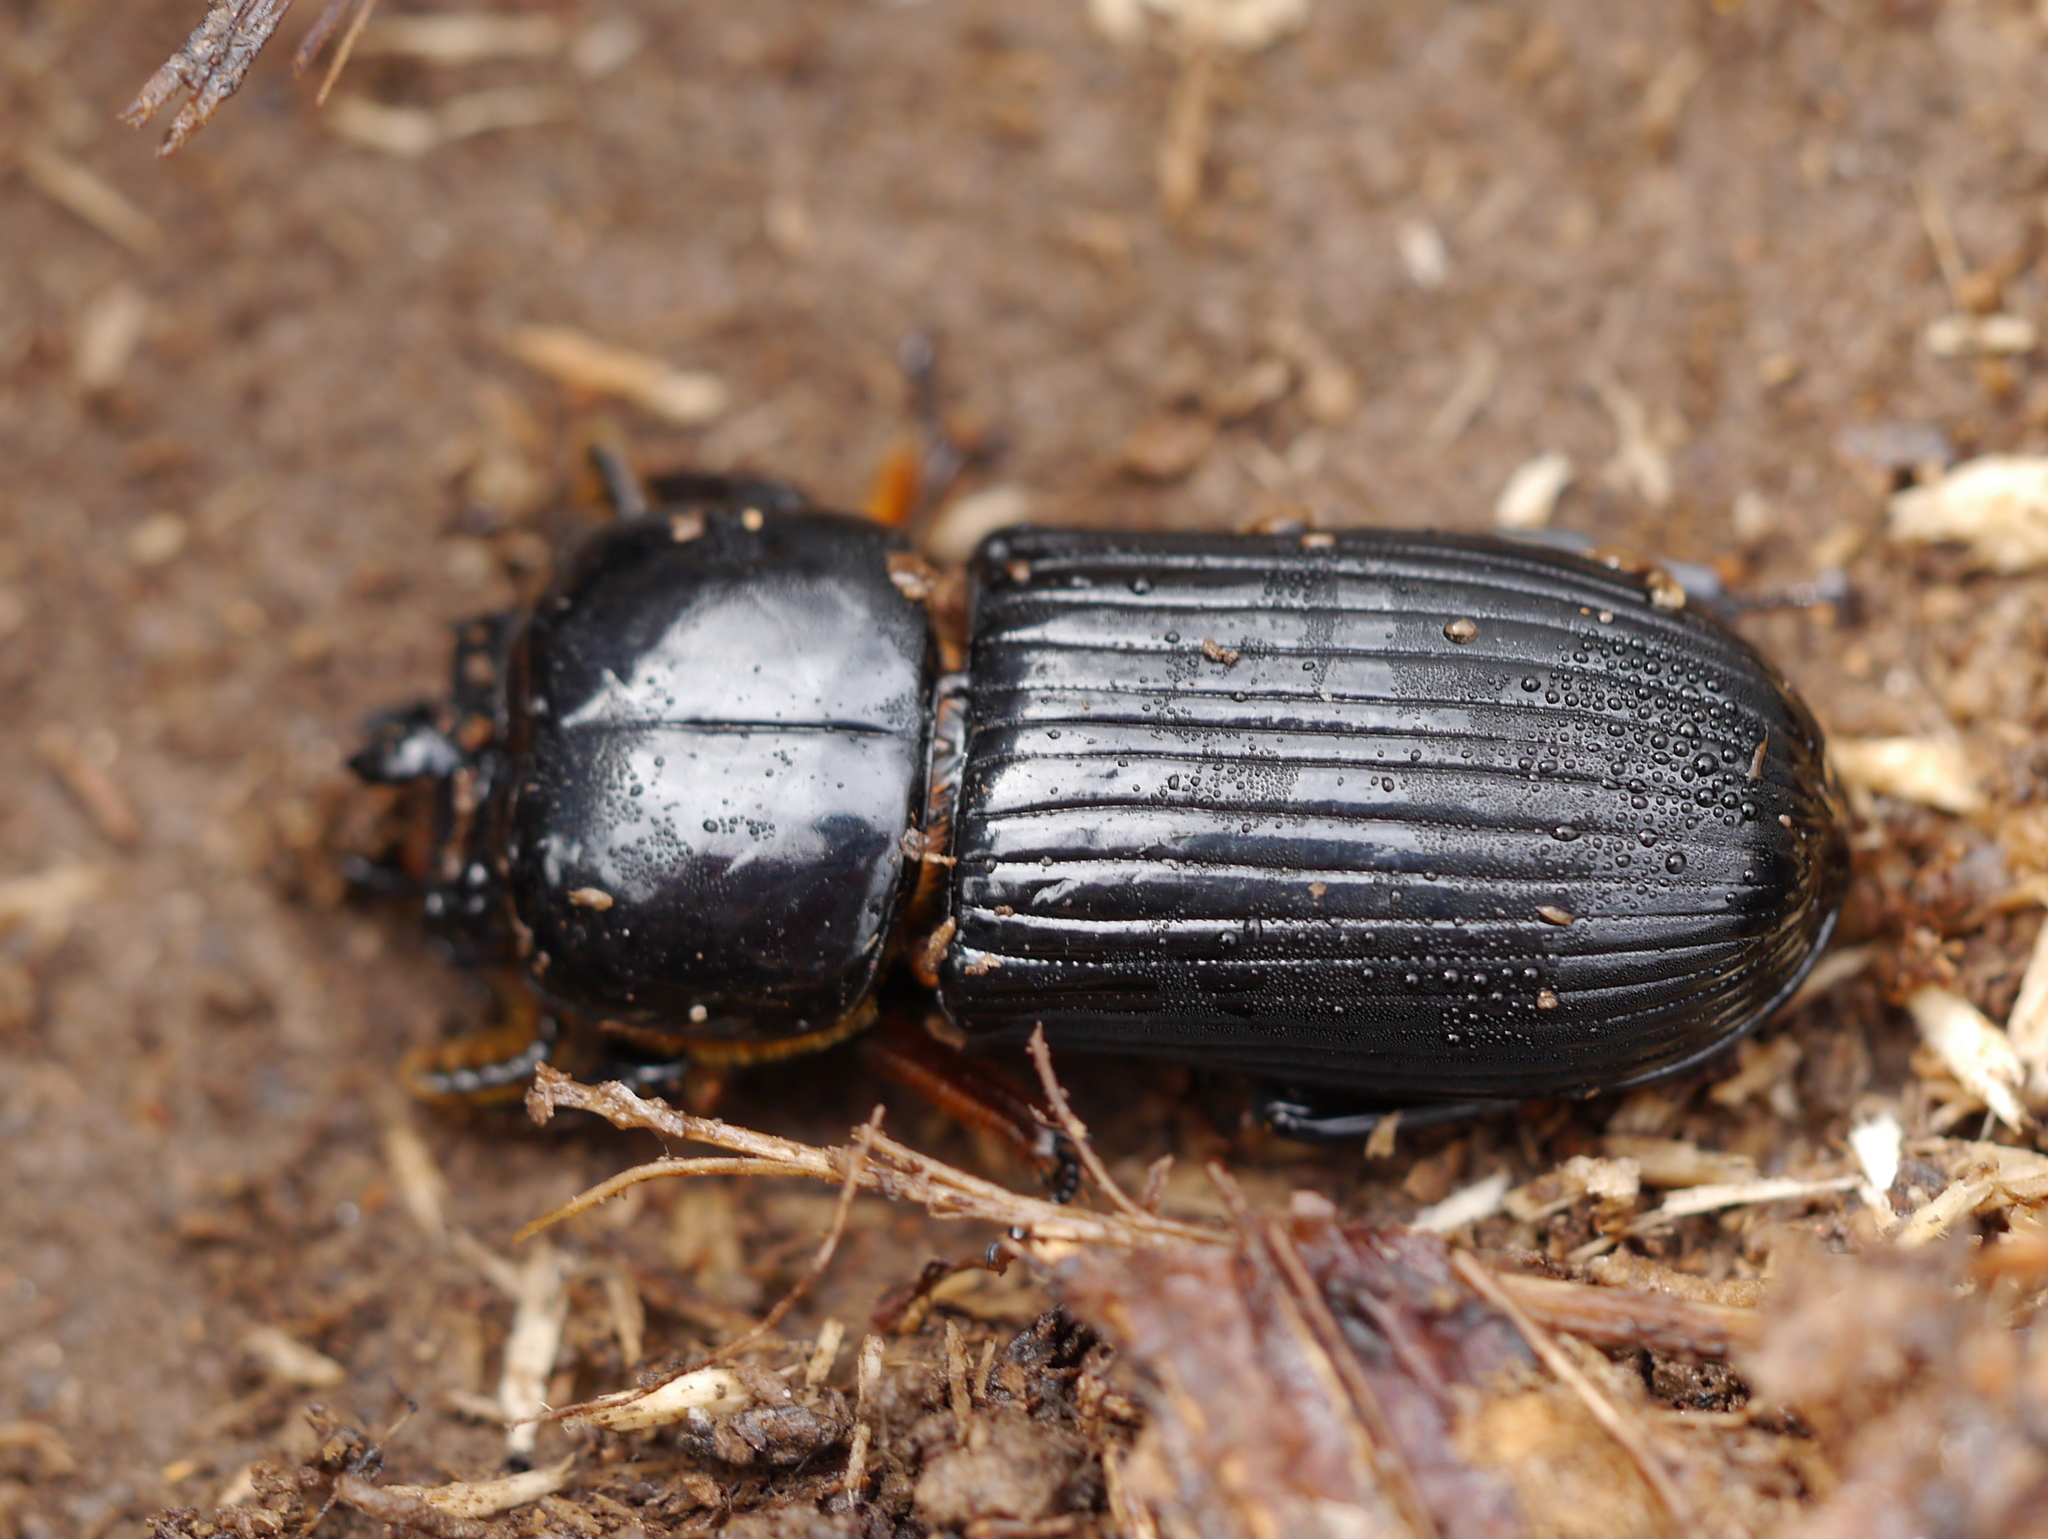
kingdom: Animalia
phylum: Arthropoda
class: Insecta
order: Coleoptera
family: Passalidae
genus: Odontotaenius
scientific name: Odontotaenius disjunctus
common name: Patent leather beetle
